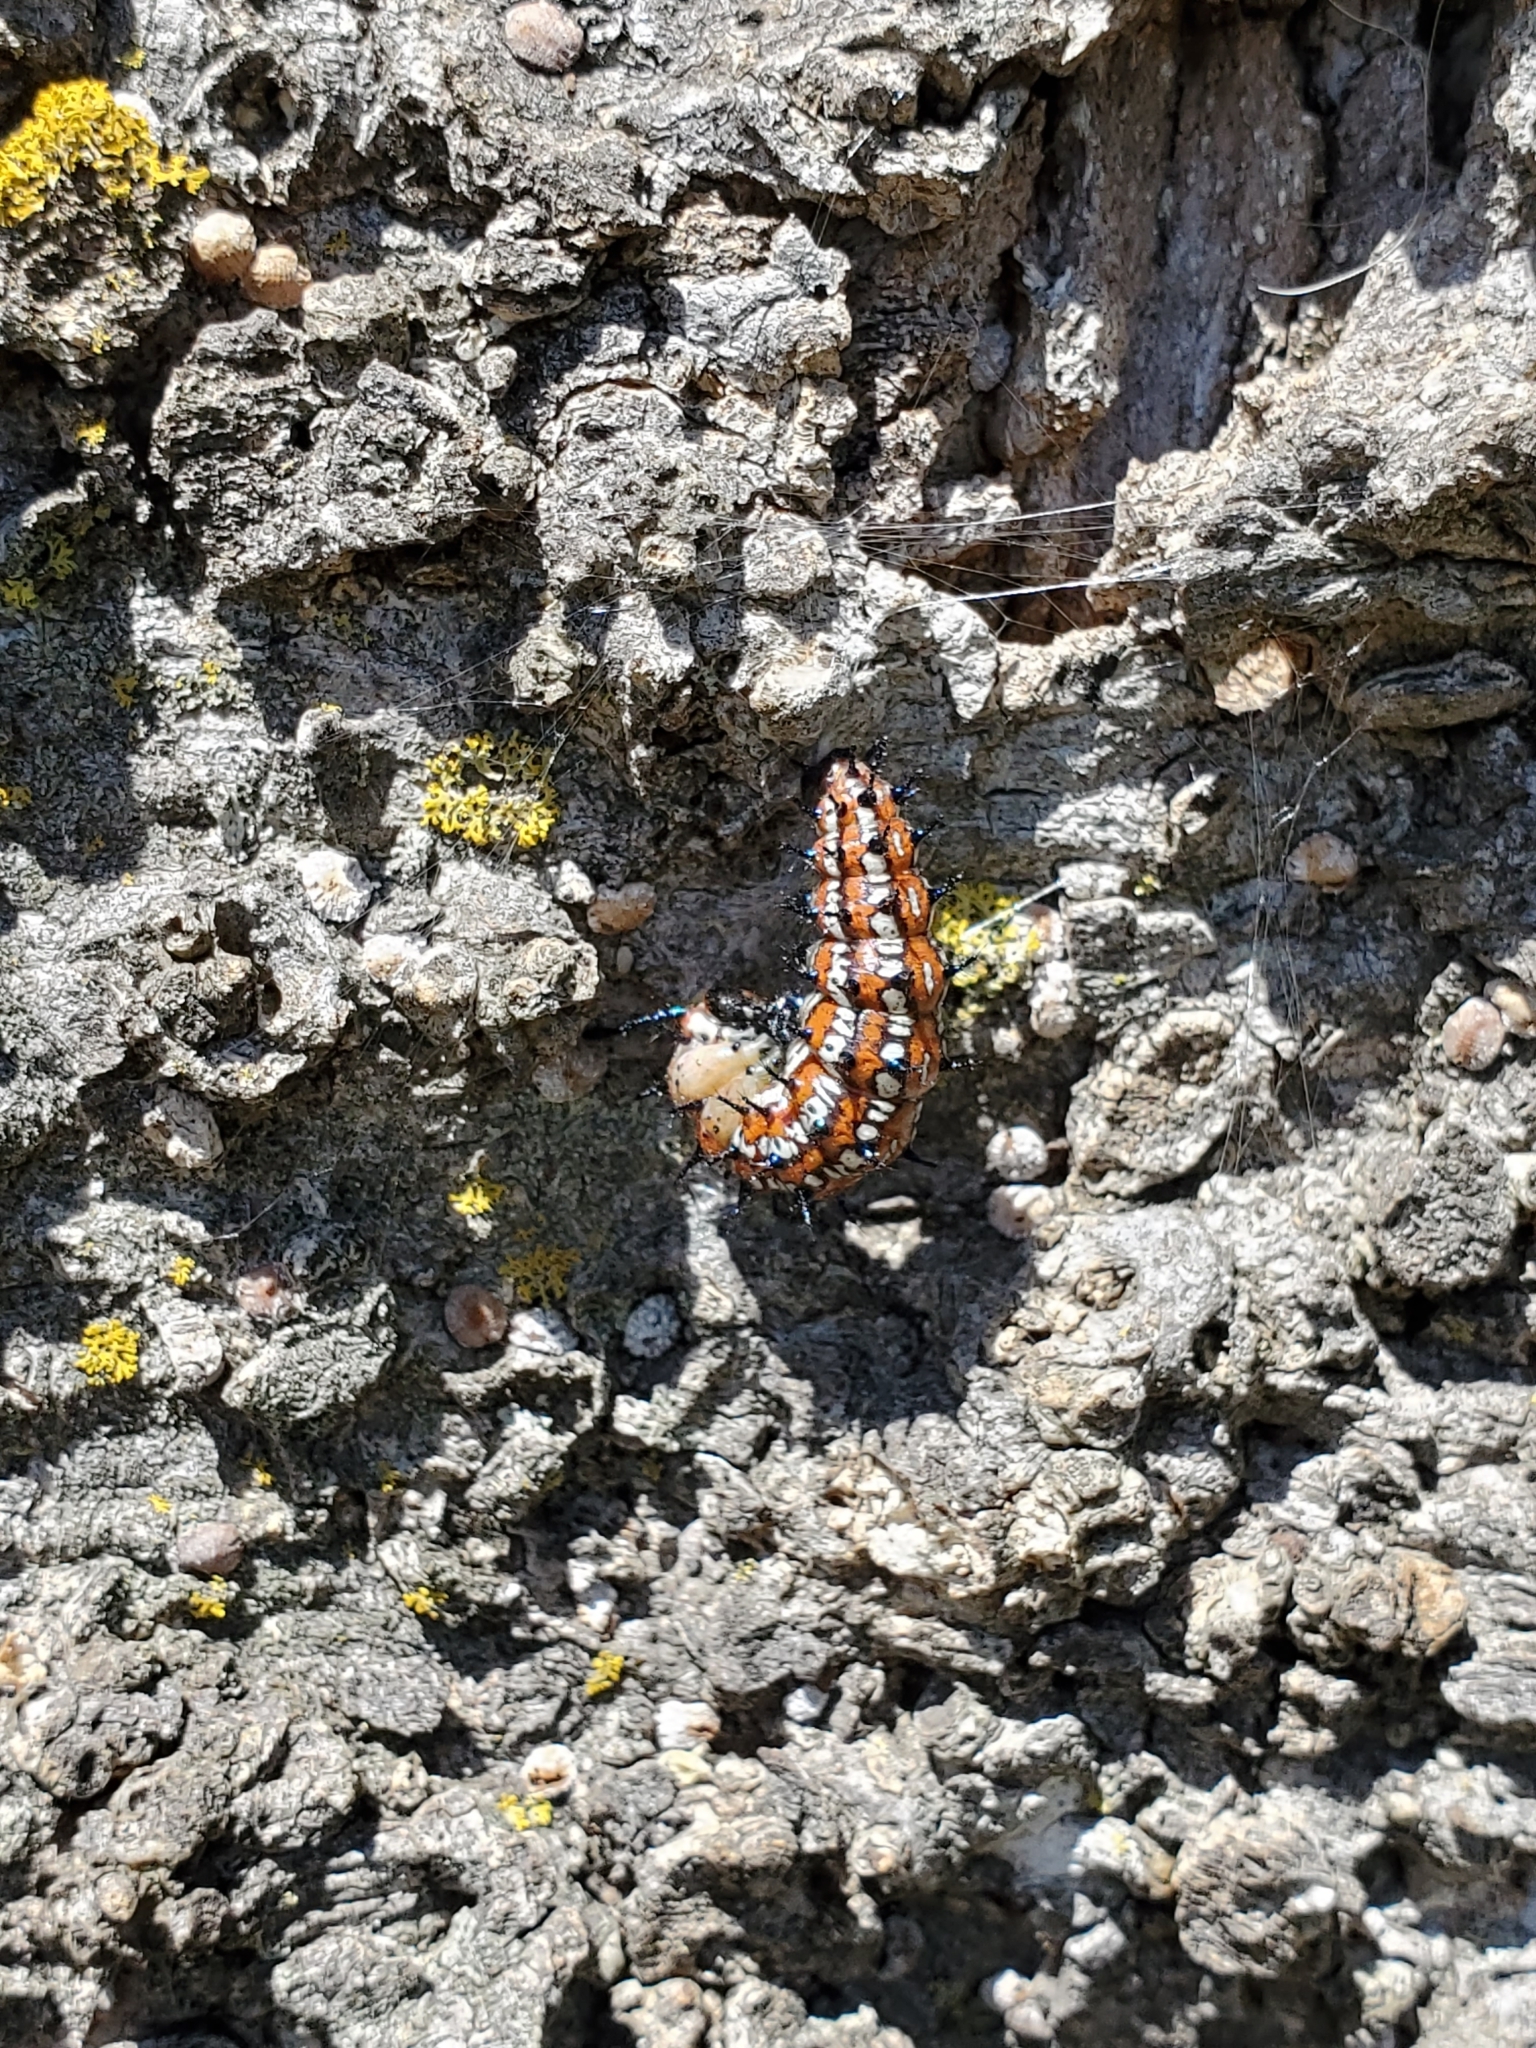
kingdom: Animalia
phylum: Arthropoda
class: Insecta
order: Lepidoptera
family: Nymphalidae
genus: Euptoieta
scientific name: Euptoieta claudia
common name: Variegated fritillary
